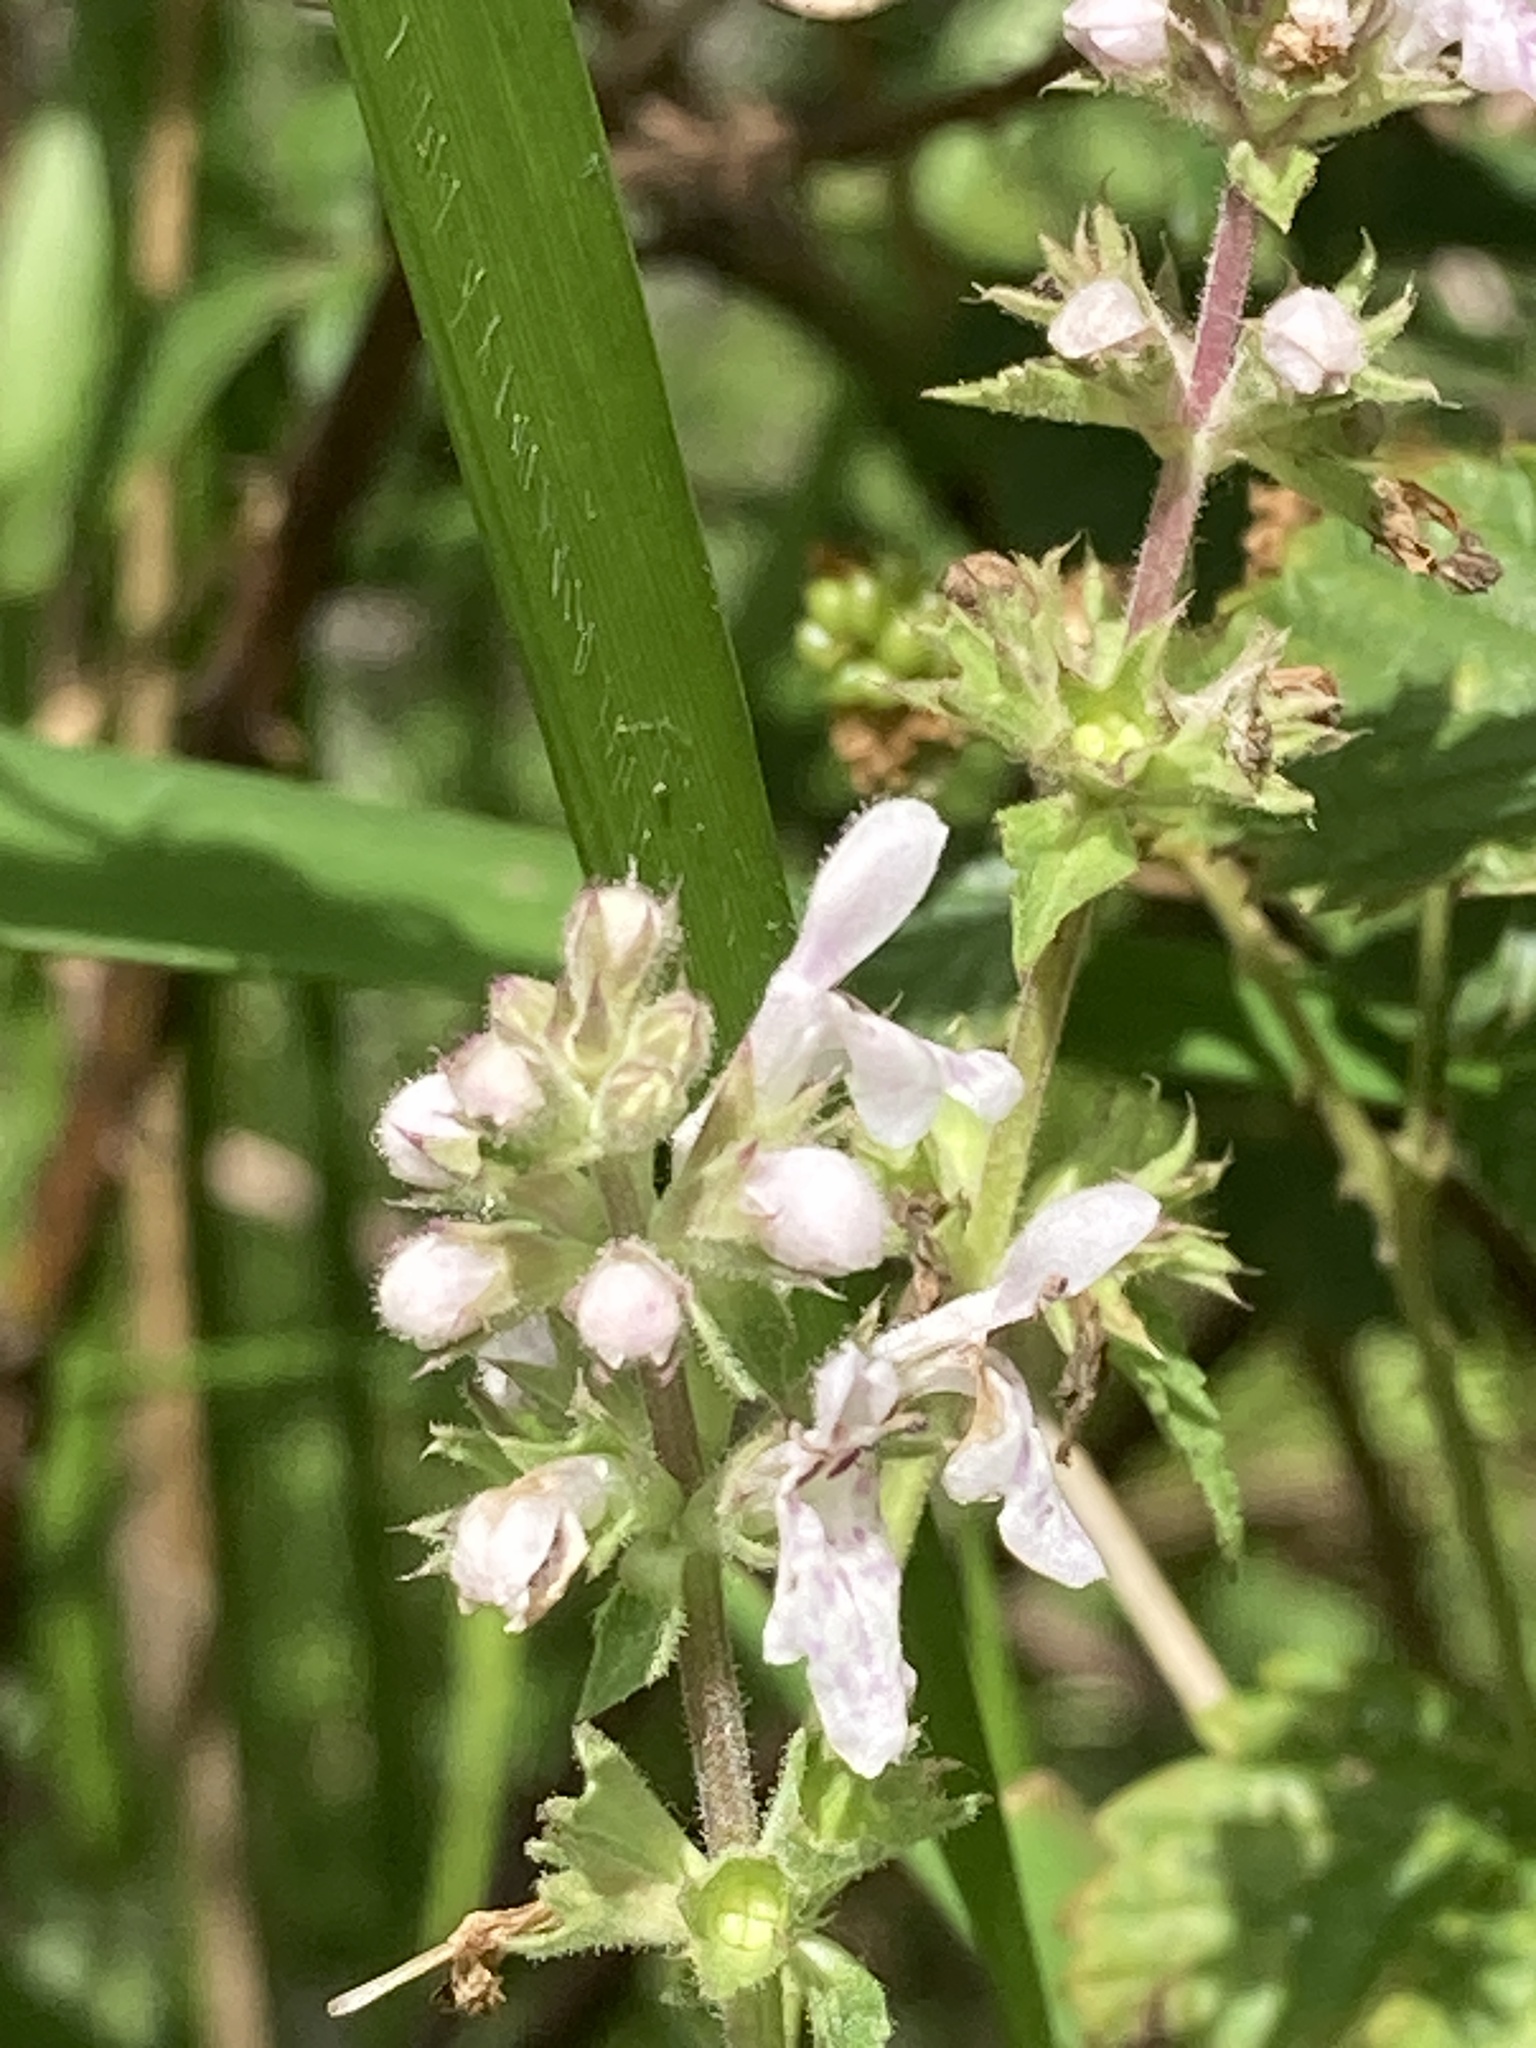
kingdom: Plantae
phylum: Tracheophyta
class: Magnoliopsida
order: Lamiales
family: Lamiaceae
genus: Stachys
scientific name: Stachys floridana
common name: Florida betony
